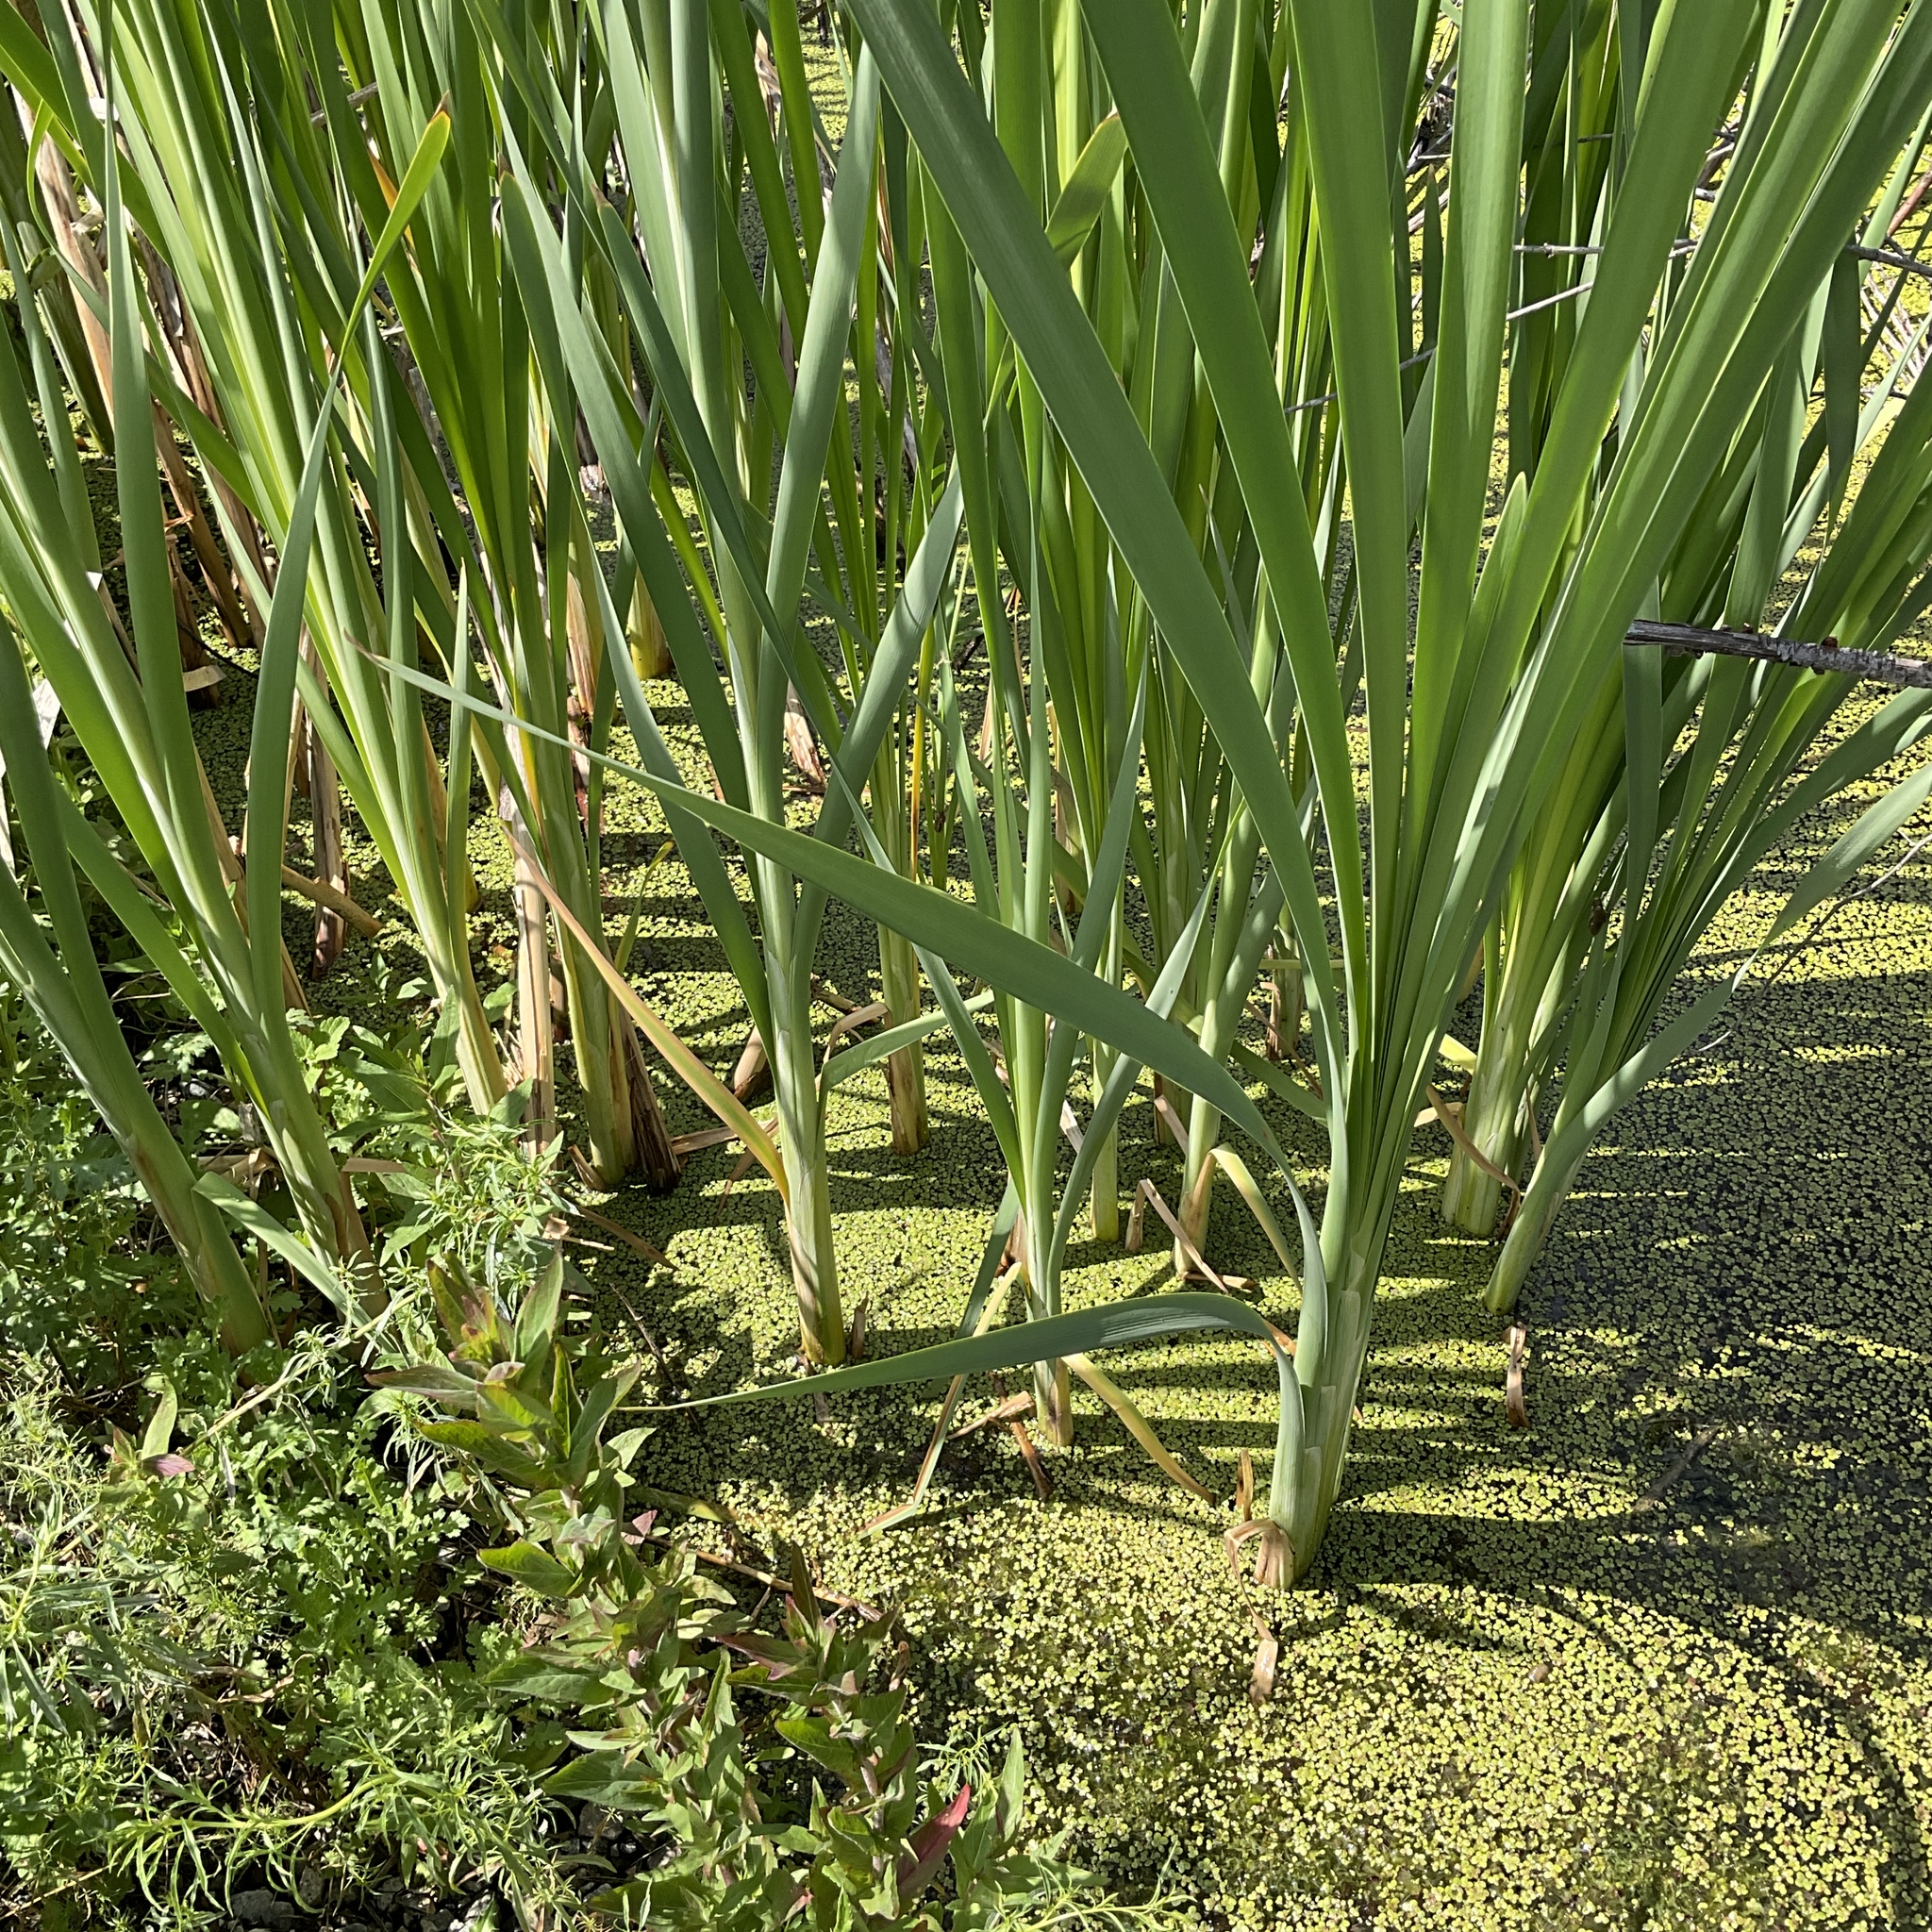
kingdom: Plantae
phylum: Tracheophyta
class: Liliopsida
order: Poales
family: Typhaceae
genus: Typha
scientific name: Typha latifolia
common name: Broadleaf cattail
